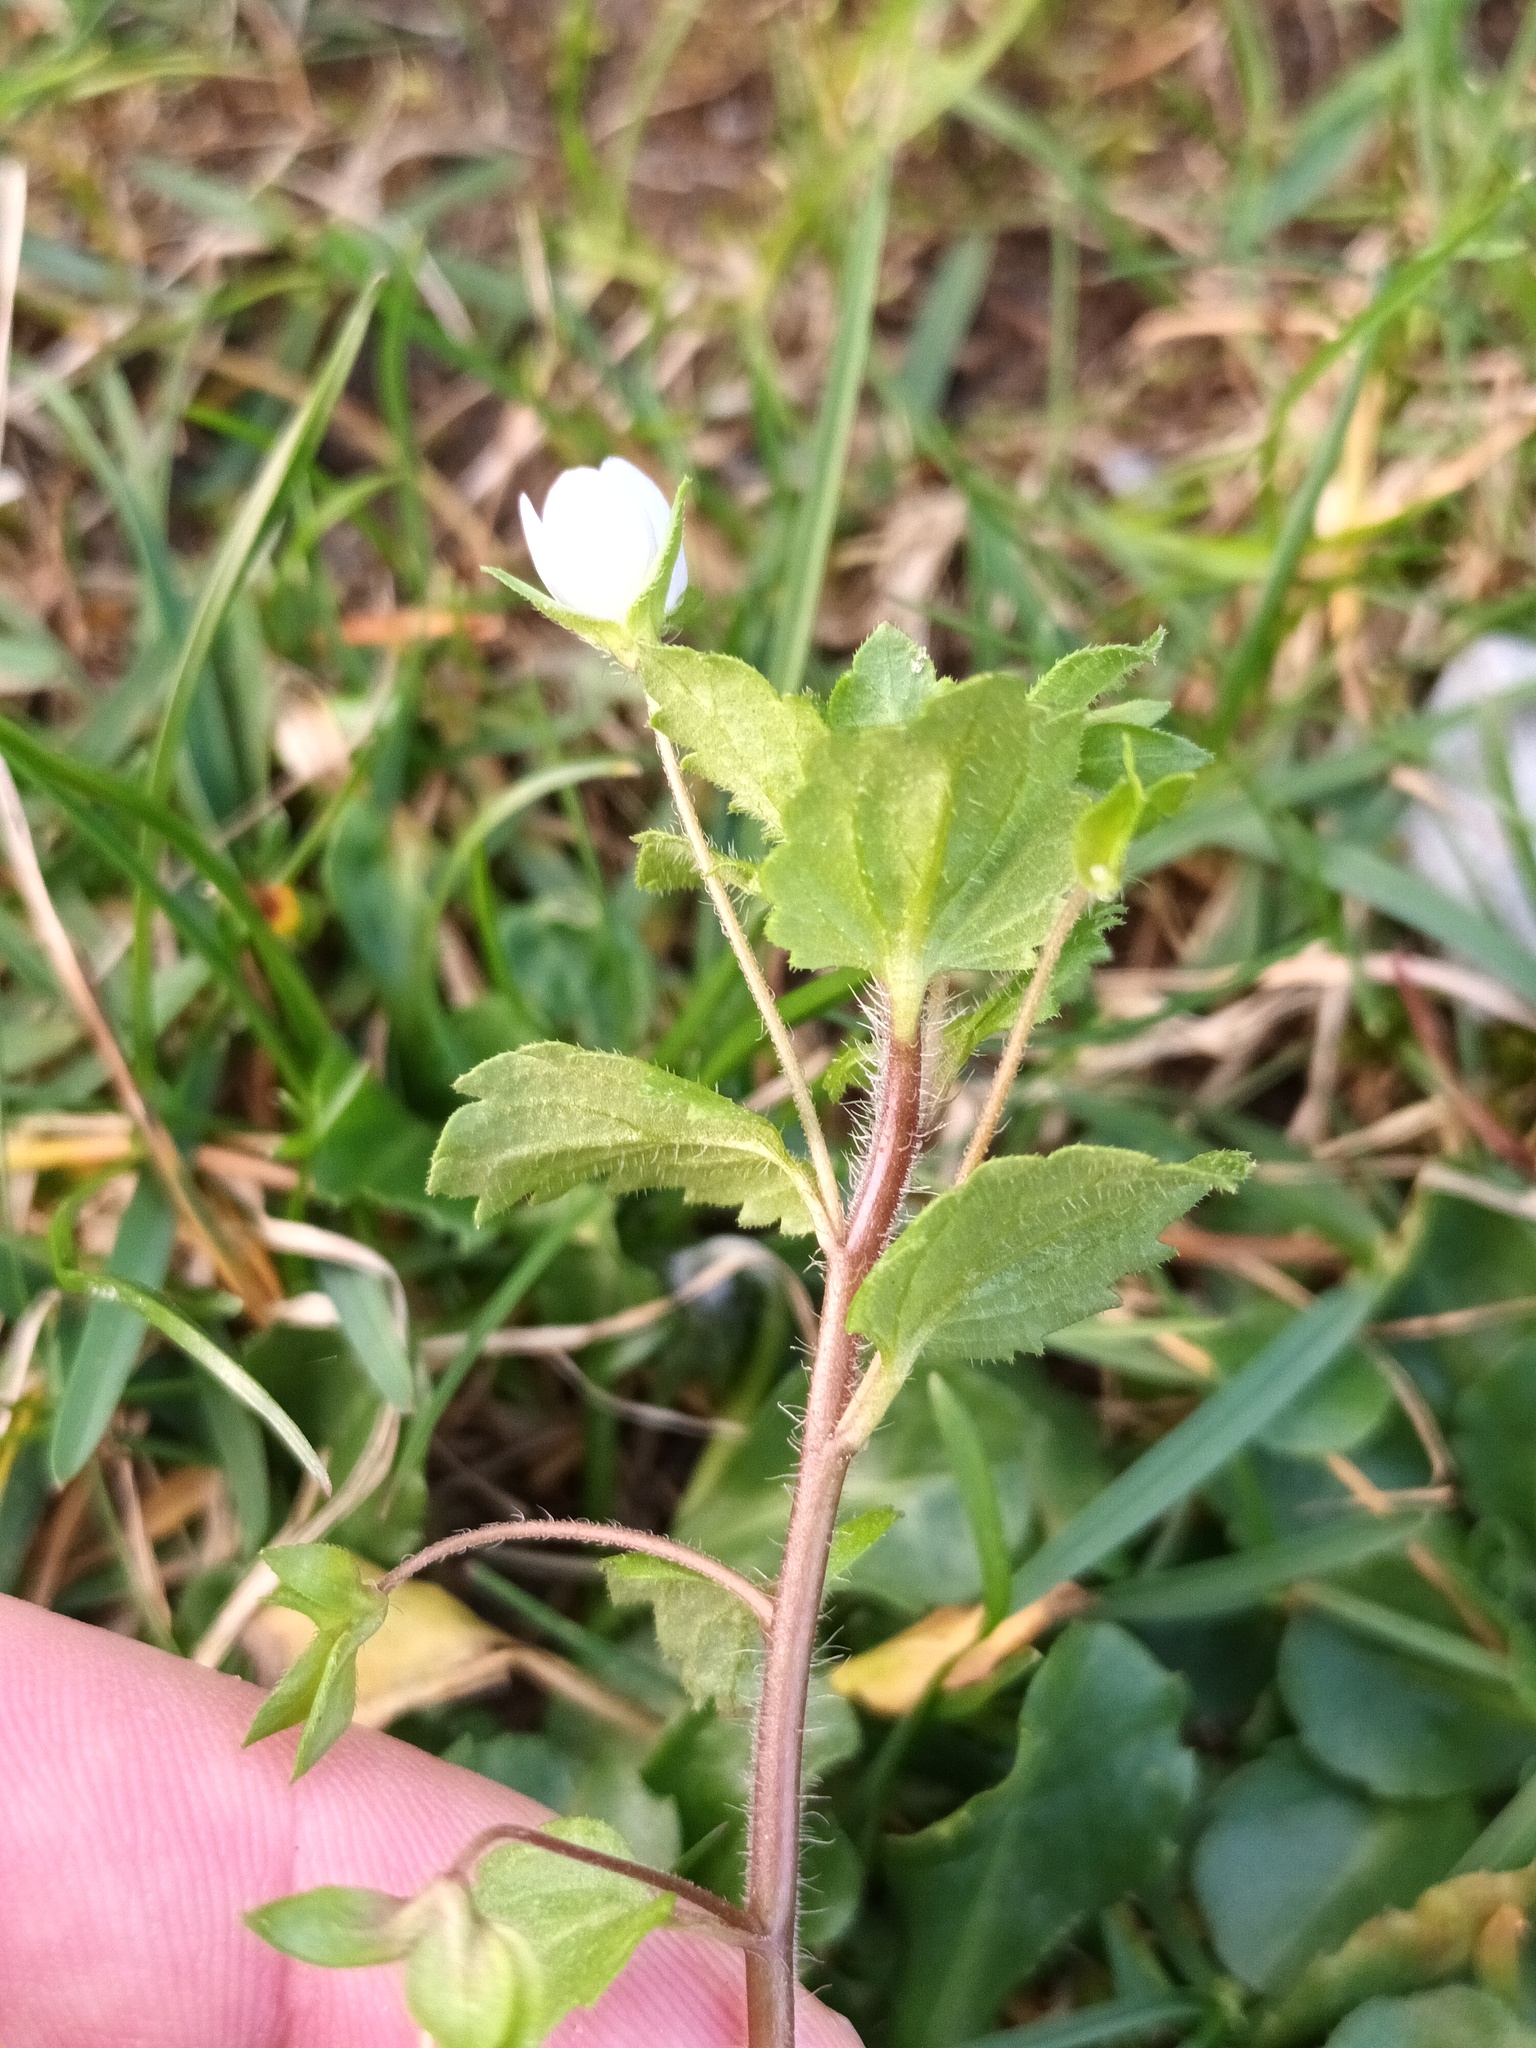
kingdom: Plantae
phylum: Tracheophyta
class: Magnoliopsida
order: Lamiales
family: Plantaginaceae
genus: Veronica
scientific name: Veronica persica
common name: Common field-speedwell
